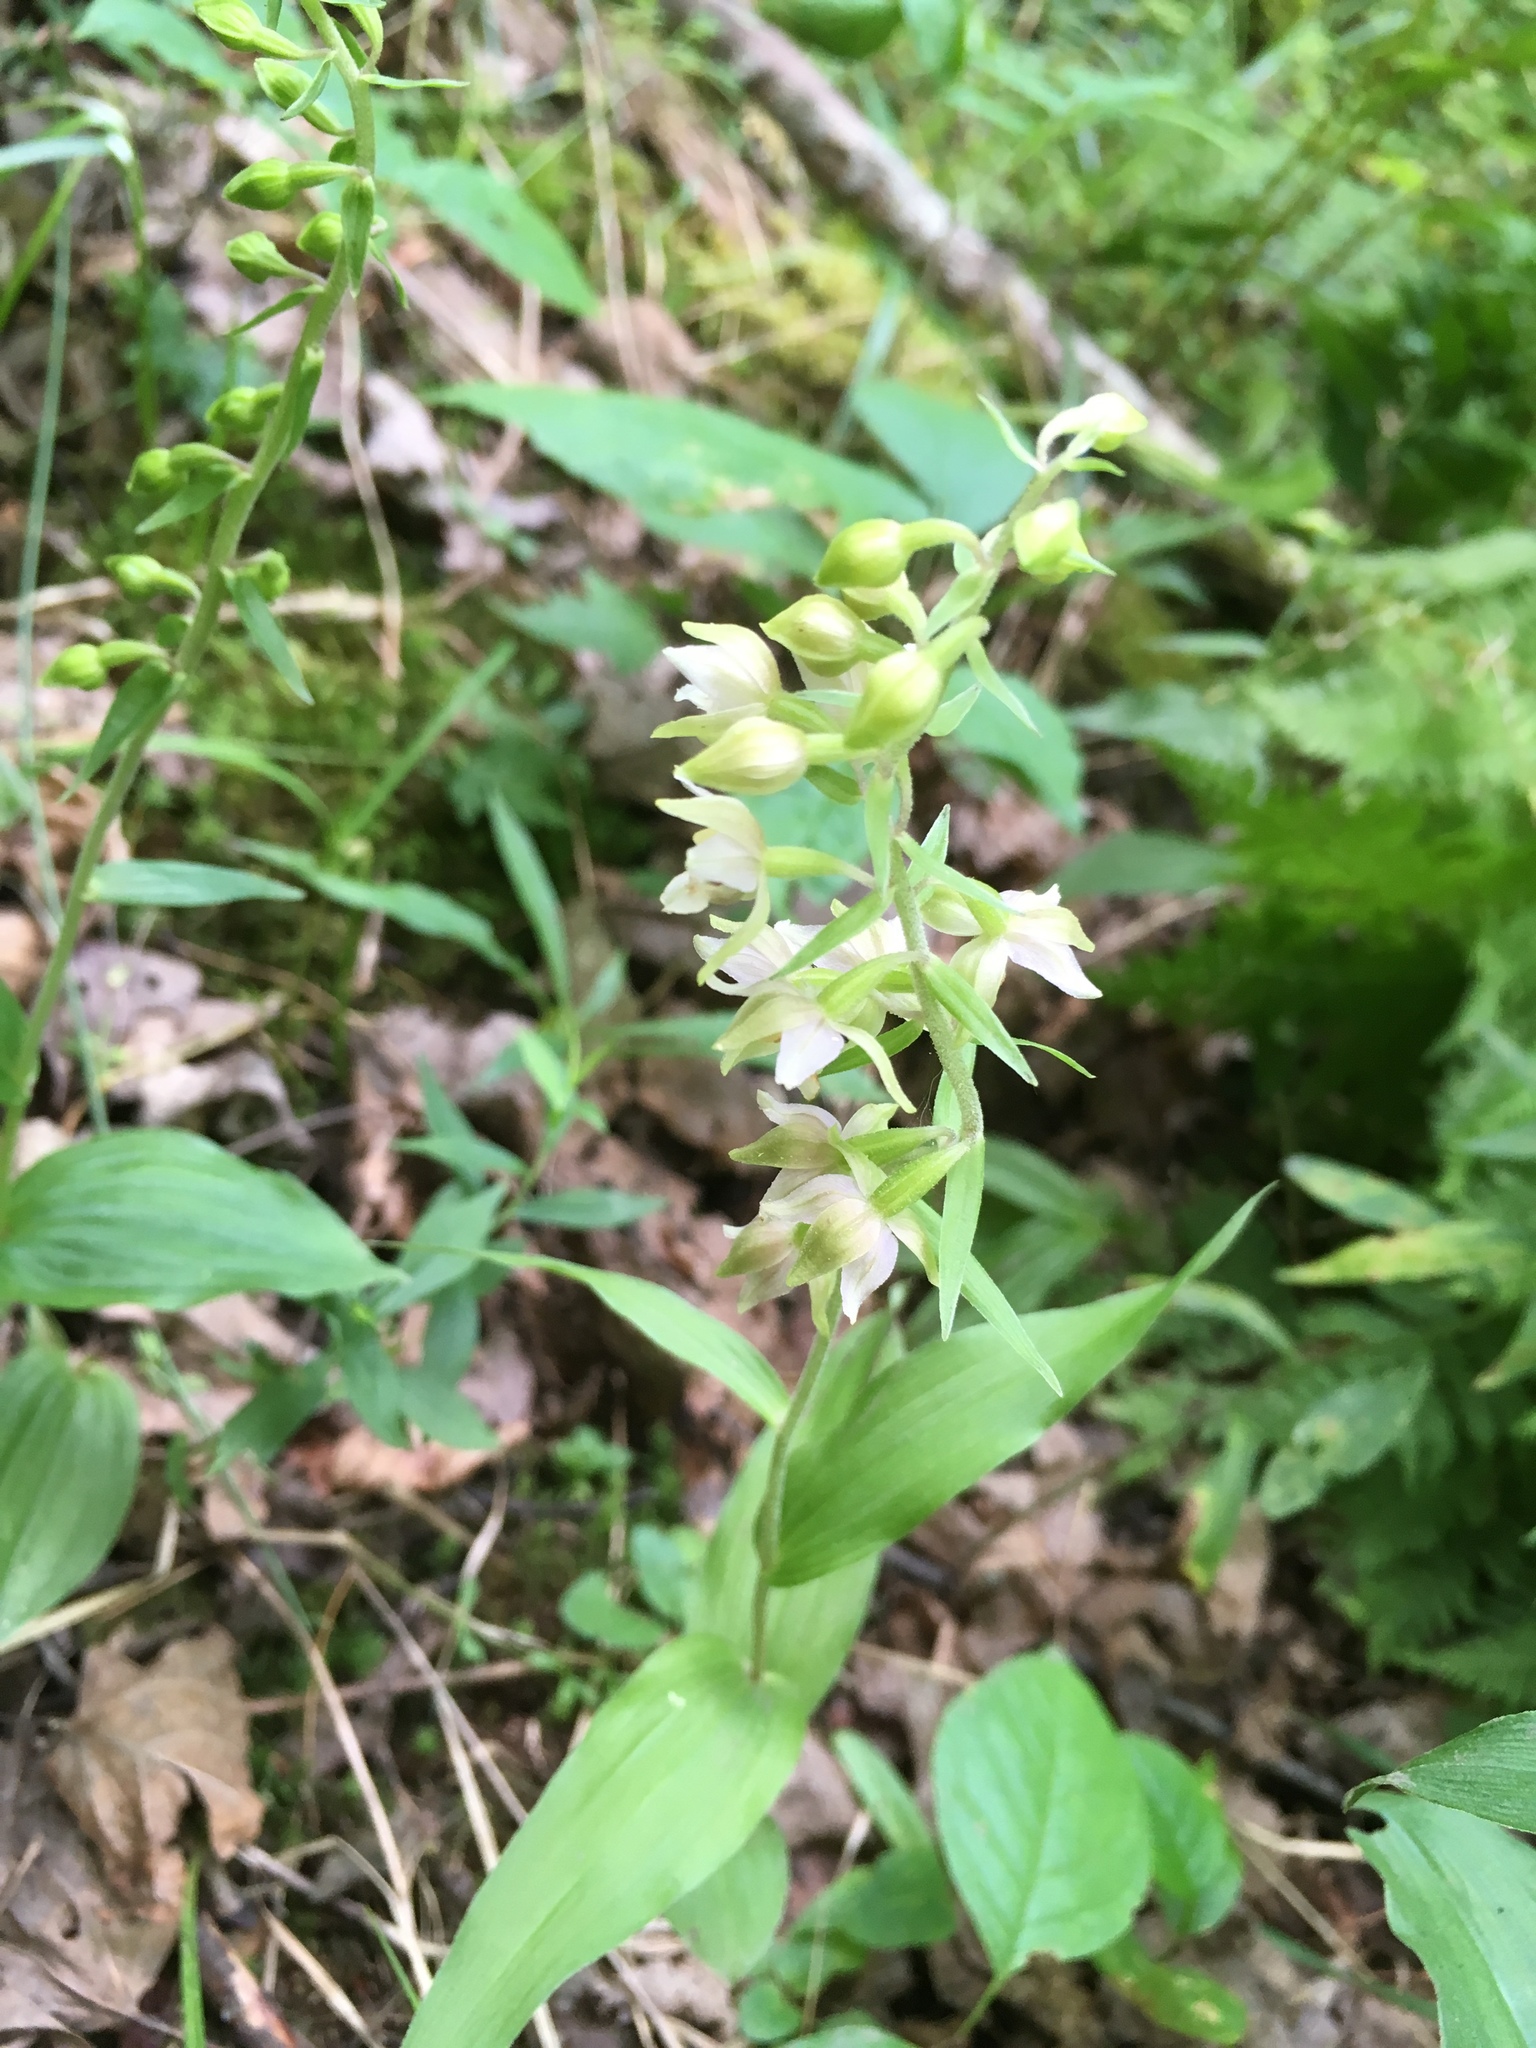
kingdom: Plantae
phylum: Tracheophyta
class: Liliopsida
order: Asparagales
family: Orchidaceae
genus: Epipactis
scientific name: Epipactis helleborine
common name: Broad-leaved helleborine
